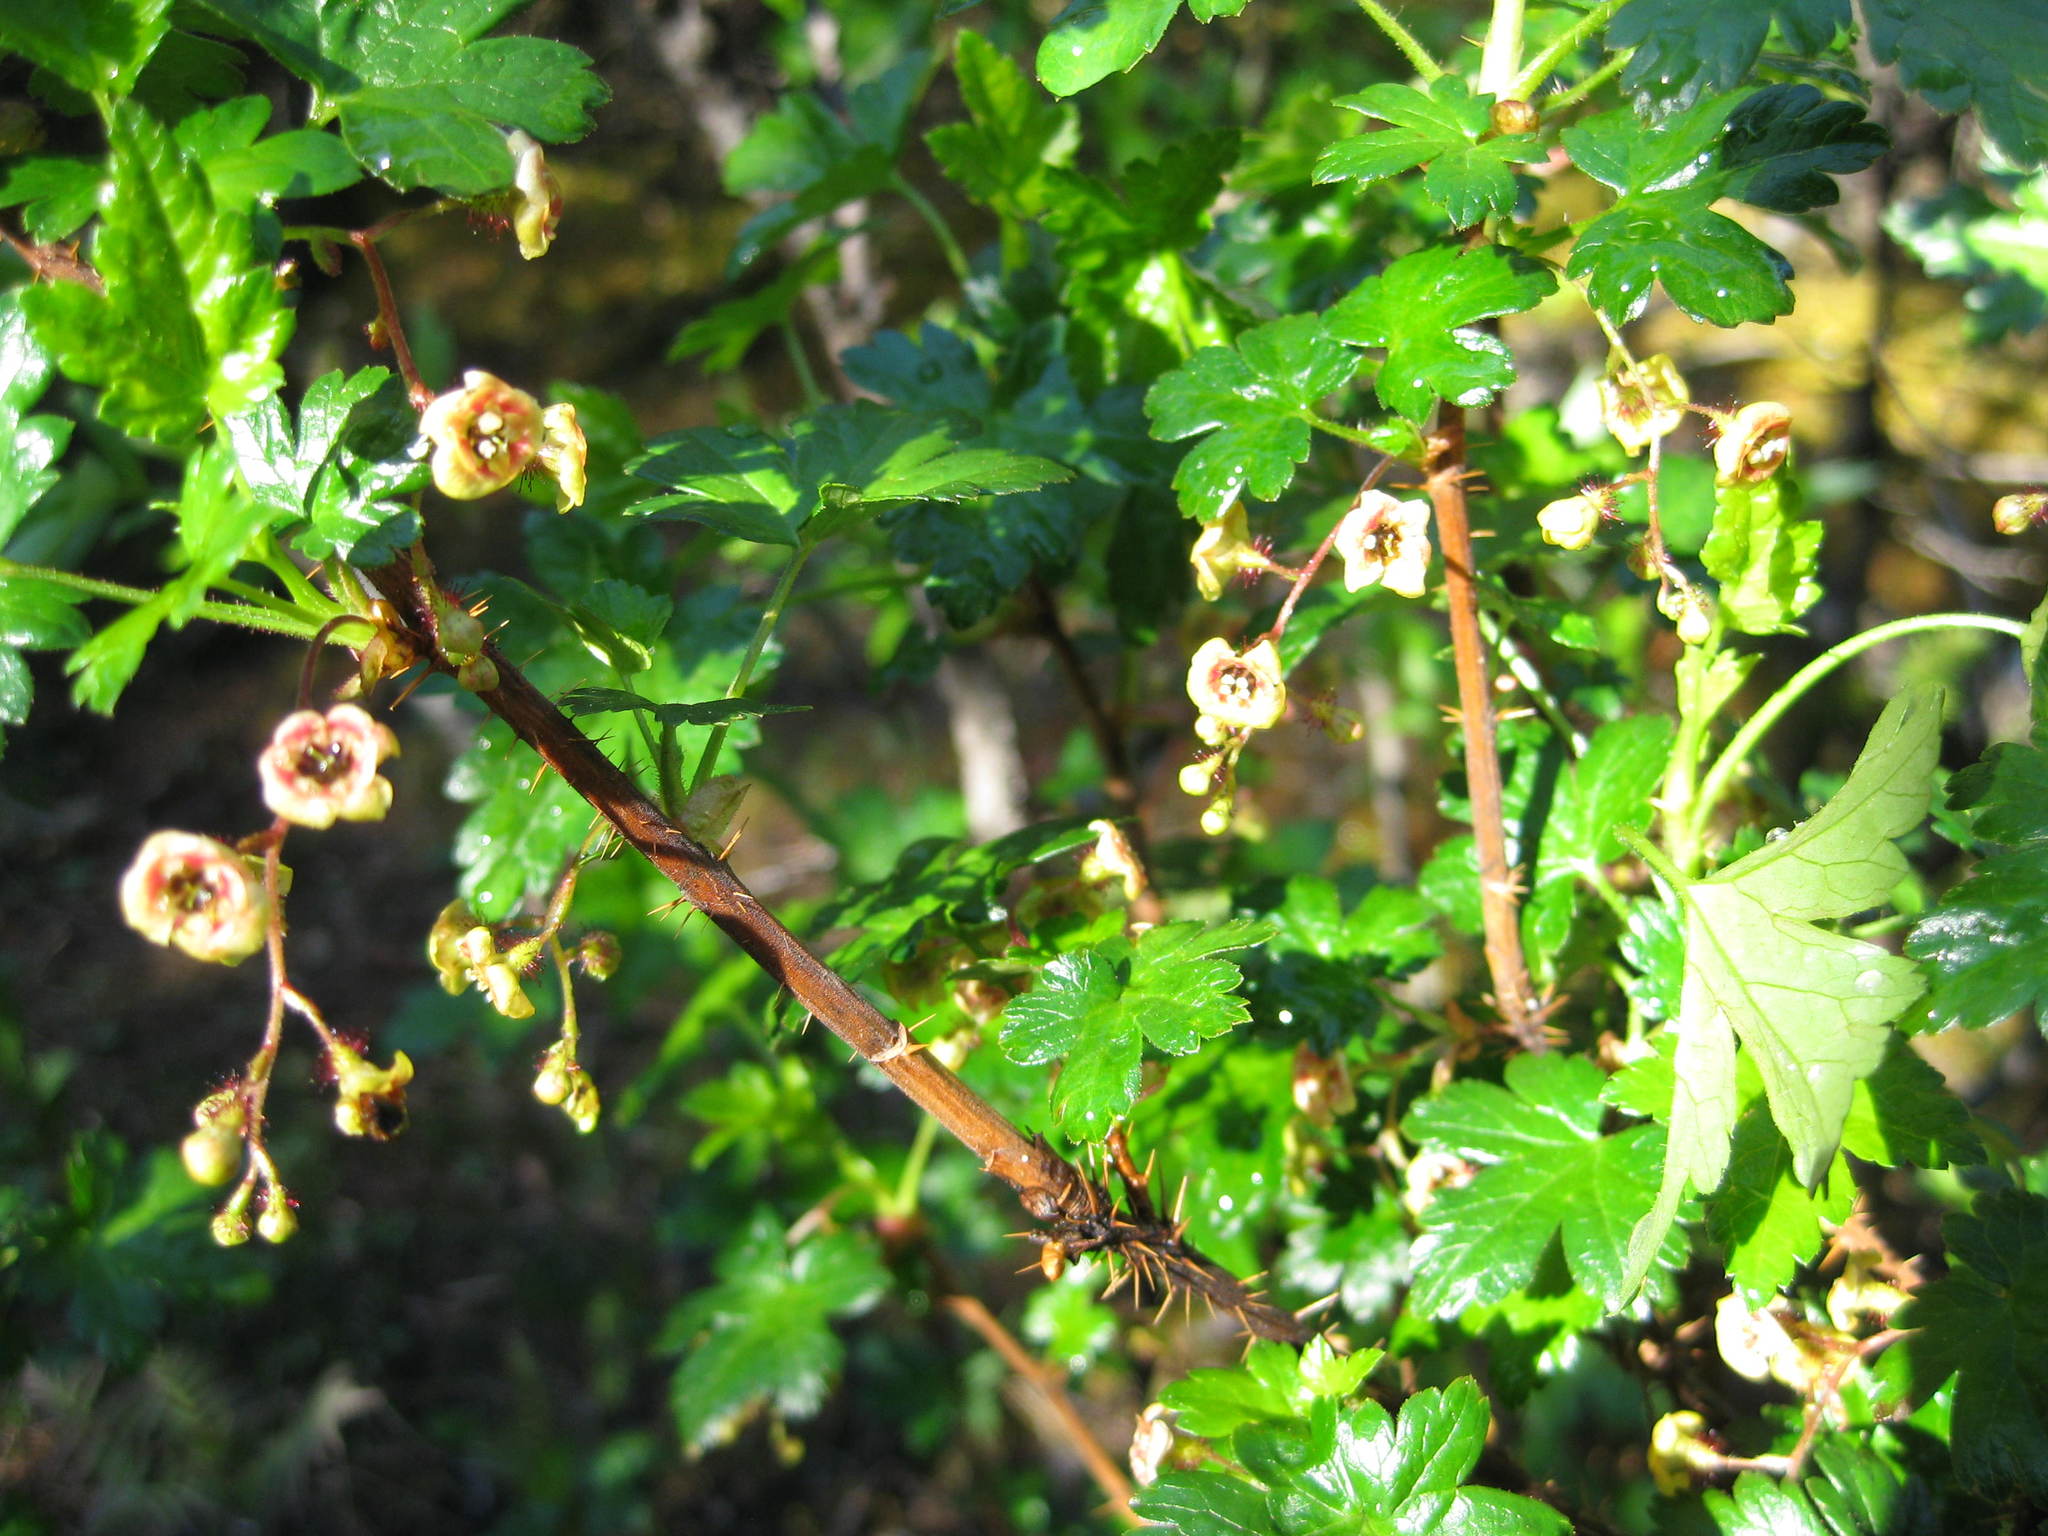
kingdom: Plantae
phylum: Tracheophyta
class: Magnoliopsida
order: Saxifragales
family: Grossulariaceae
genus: Ribes
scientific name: Ribes lacustre
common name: Black gooseberry
